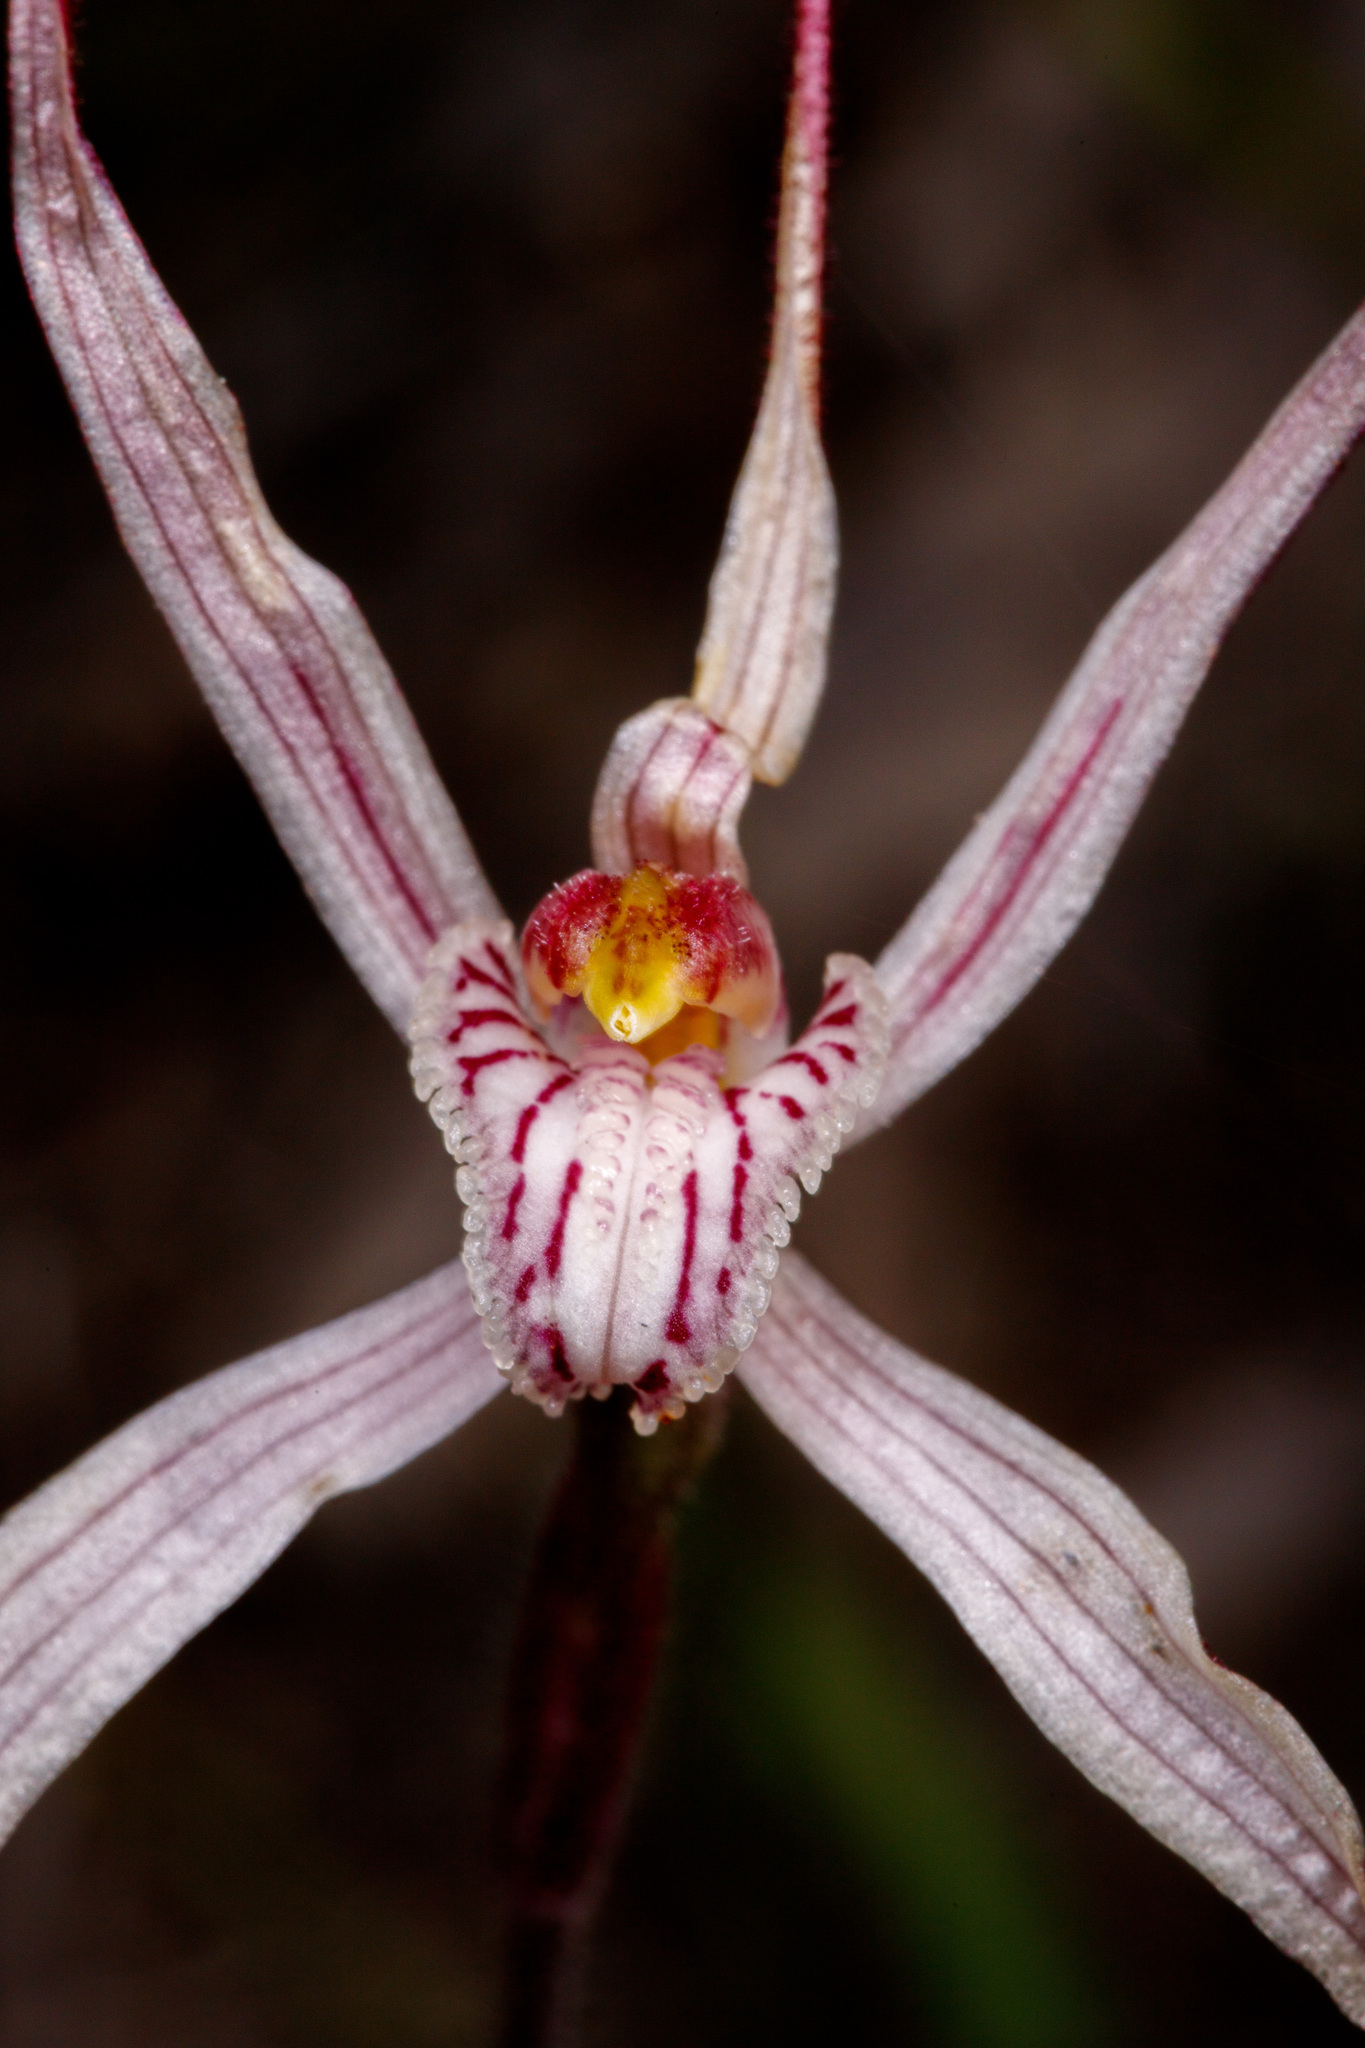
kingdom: Plantae
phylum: Tracheophyta
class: Liliopsida
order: Asparagales
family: Orchidaceae
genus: Caladenia
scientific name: Caladenia polychroma
